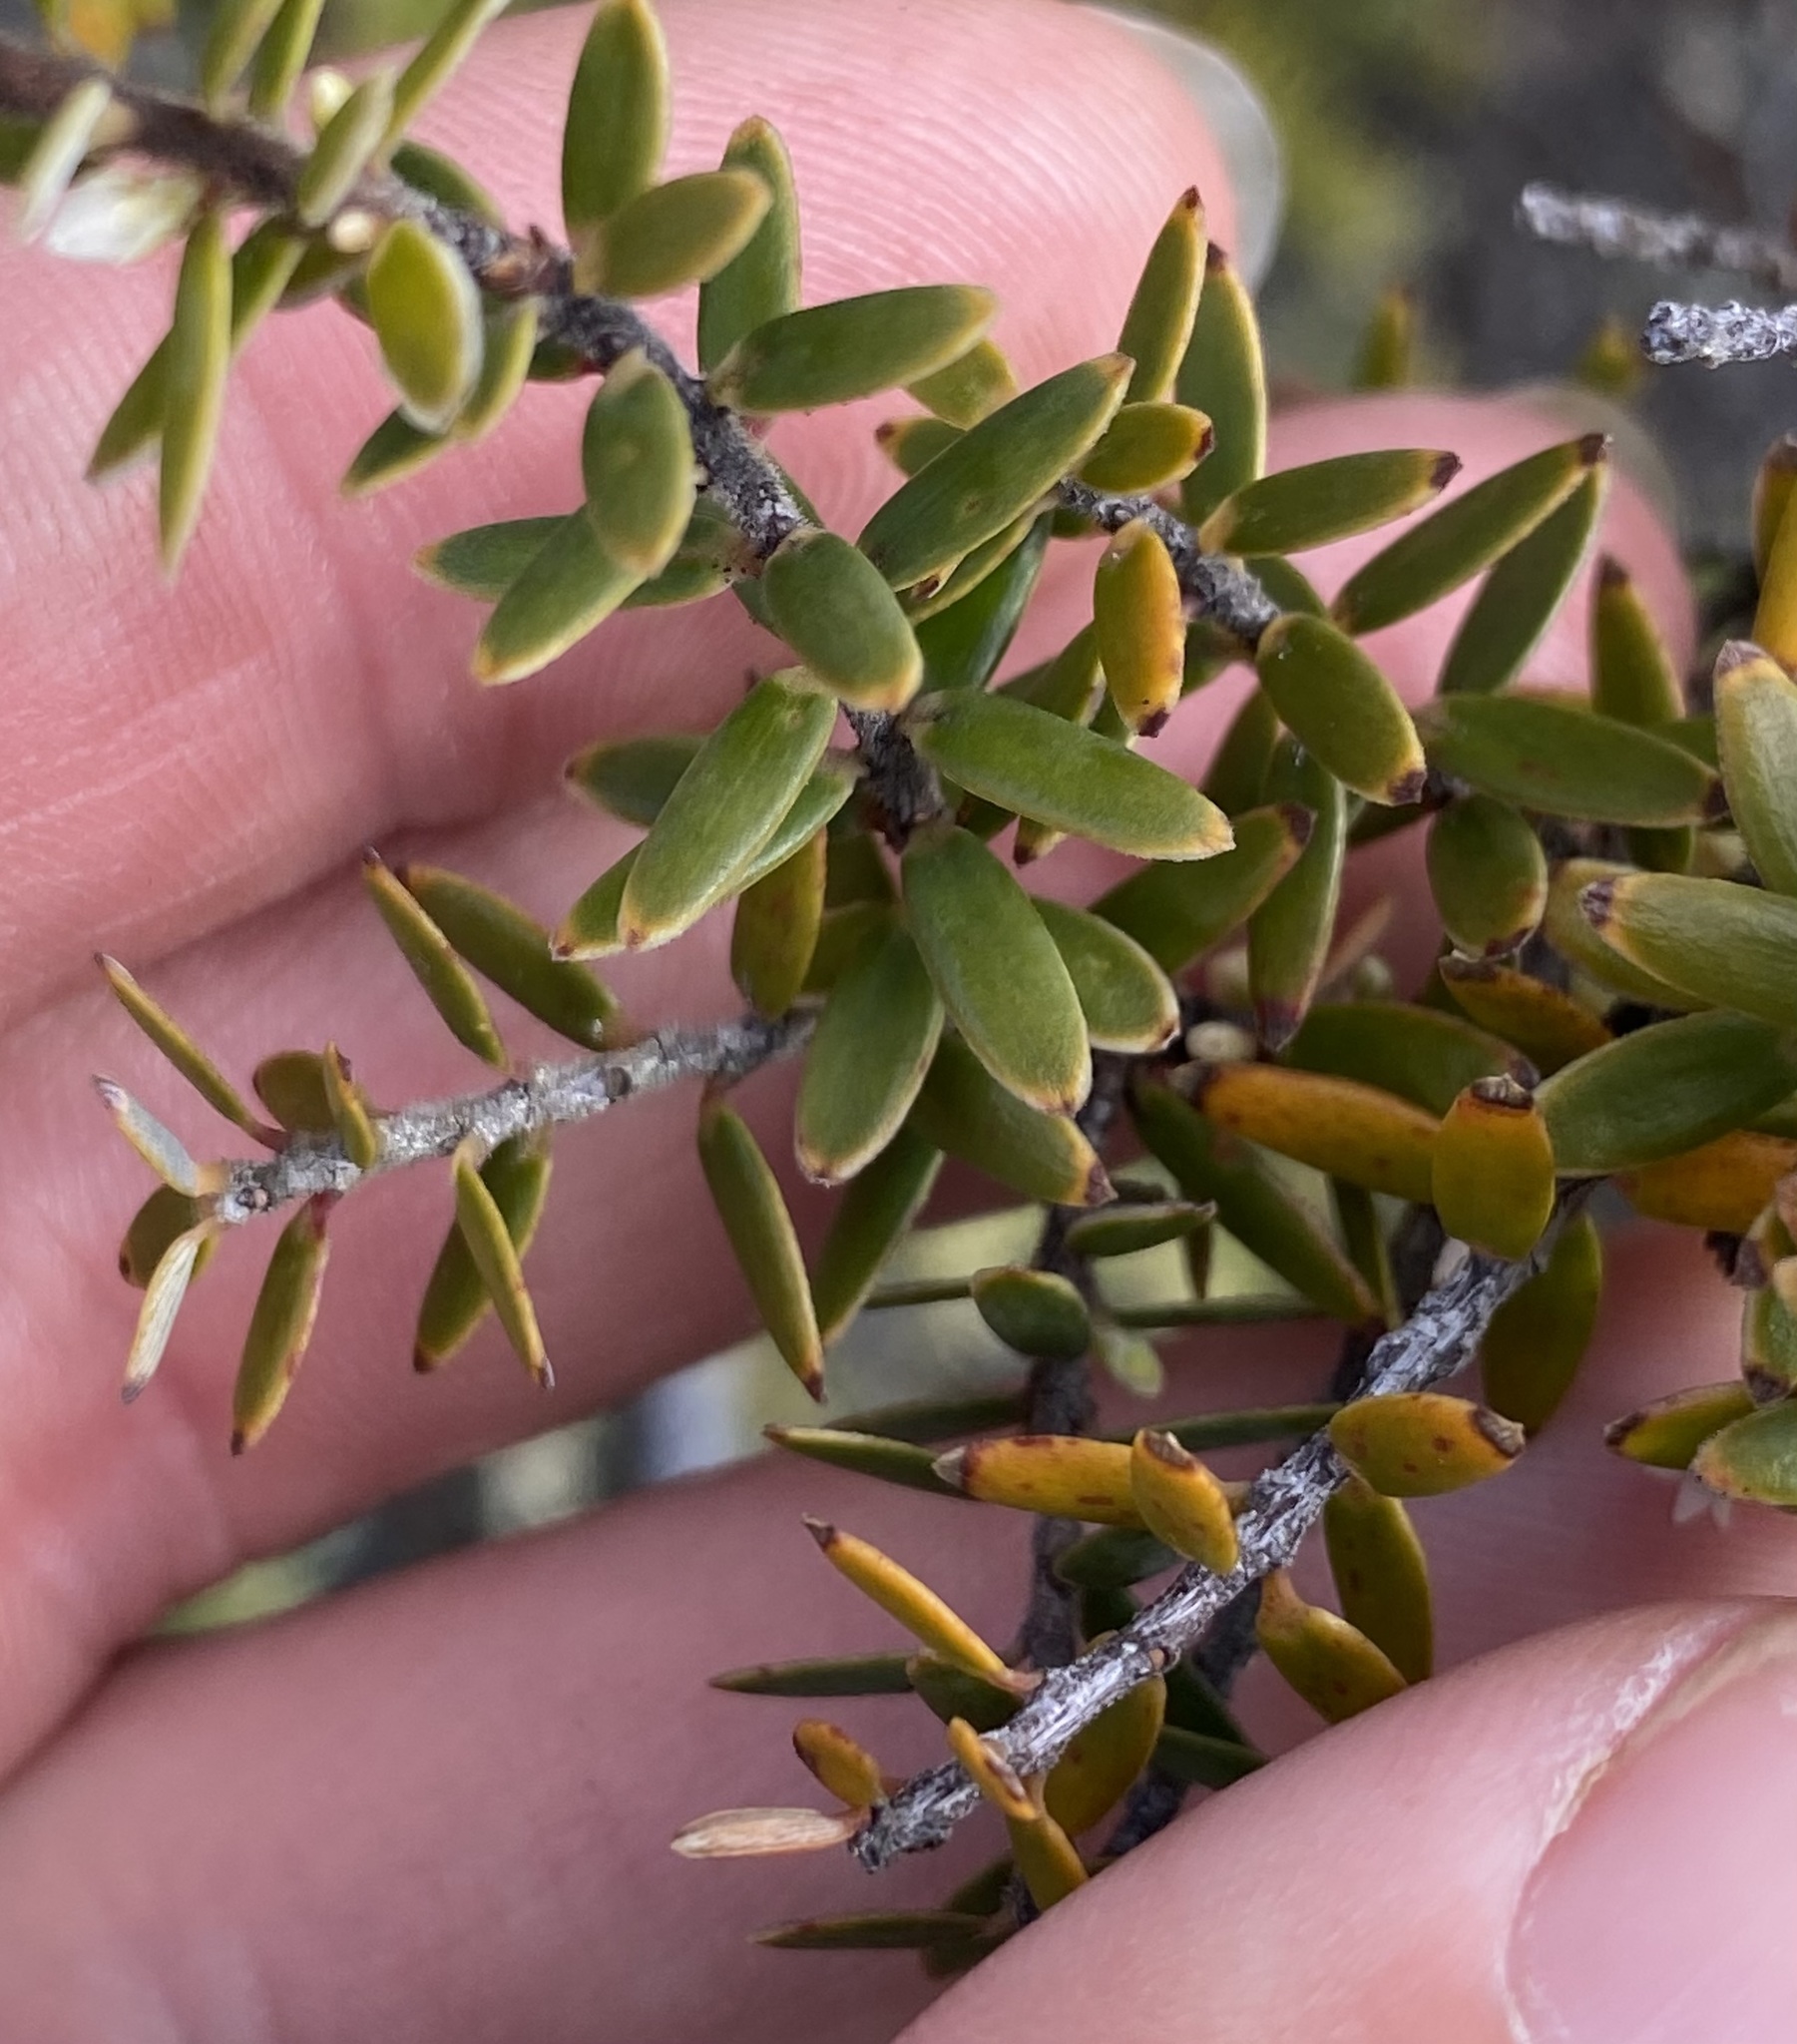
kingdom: Plantae
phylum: Tracheophyta
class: Magnoliopsida
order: Ericales
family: Ericaceae
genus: Leptecophylla
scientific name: Leptecophylla tameiameiae
